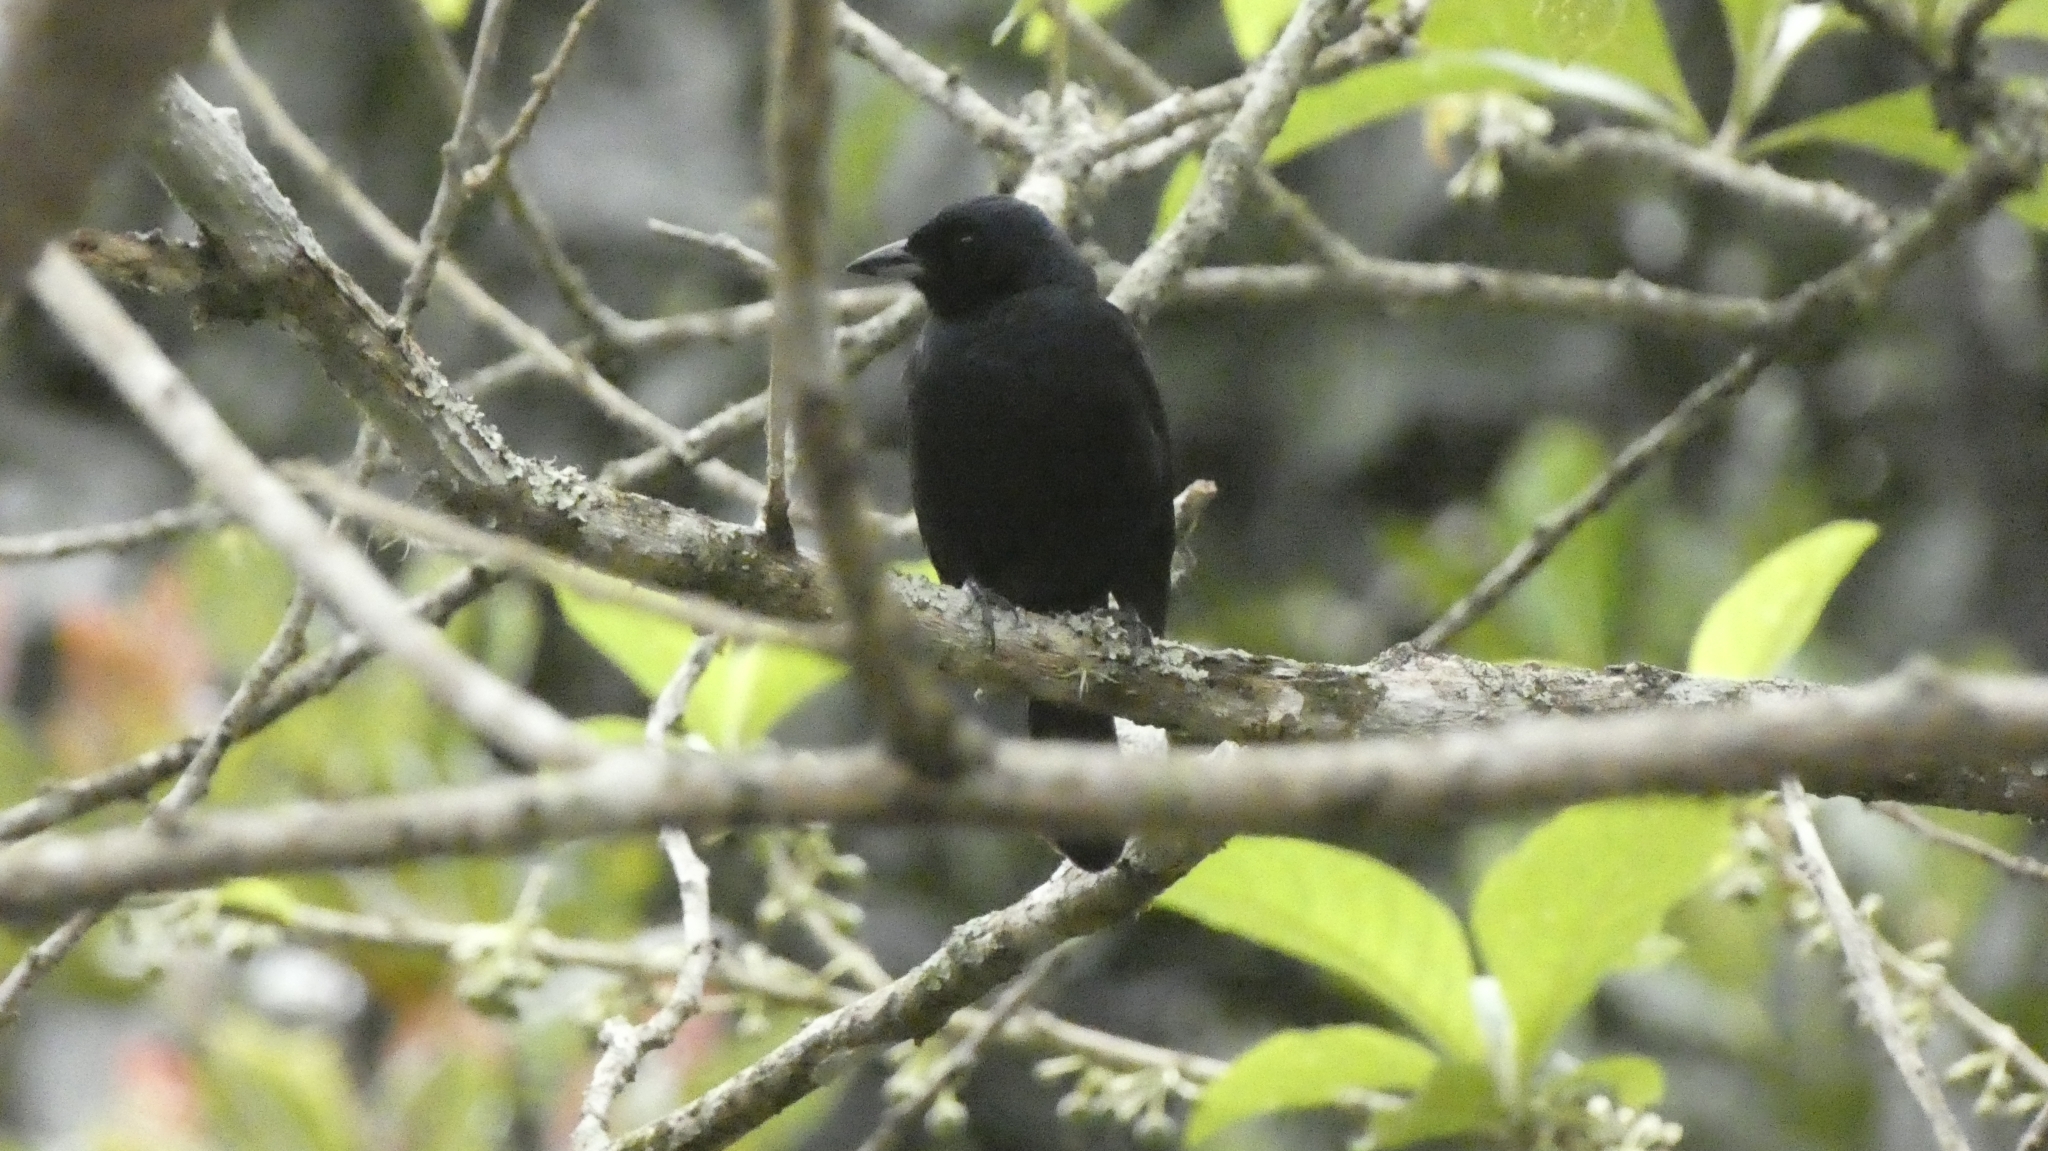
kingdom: Animalia
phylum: Chordata
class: Aves
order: Passeriformes
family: Thraupidae
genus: Tachyphonus
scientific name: Tachyphonus coronatus
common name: Ruby-crowned tanager
